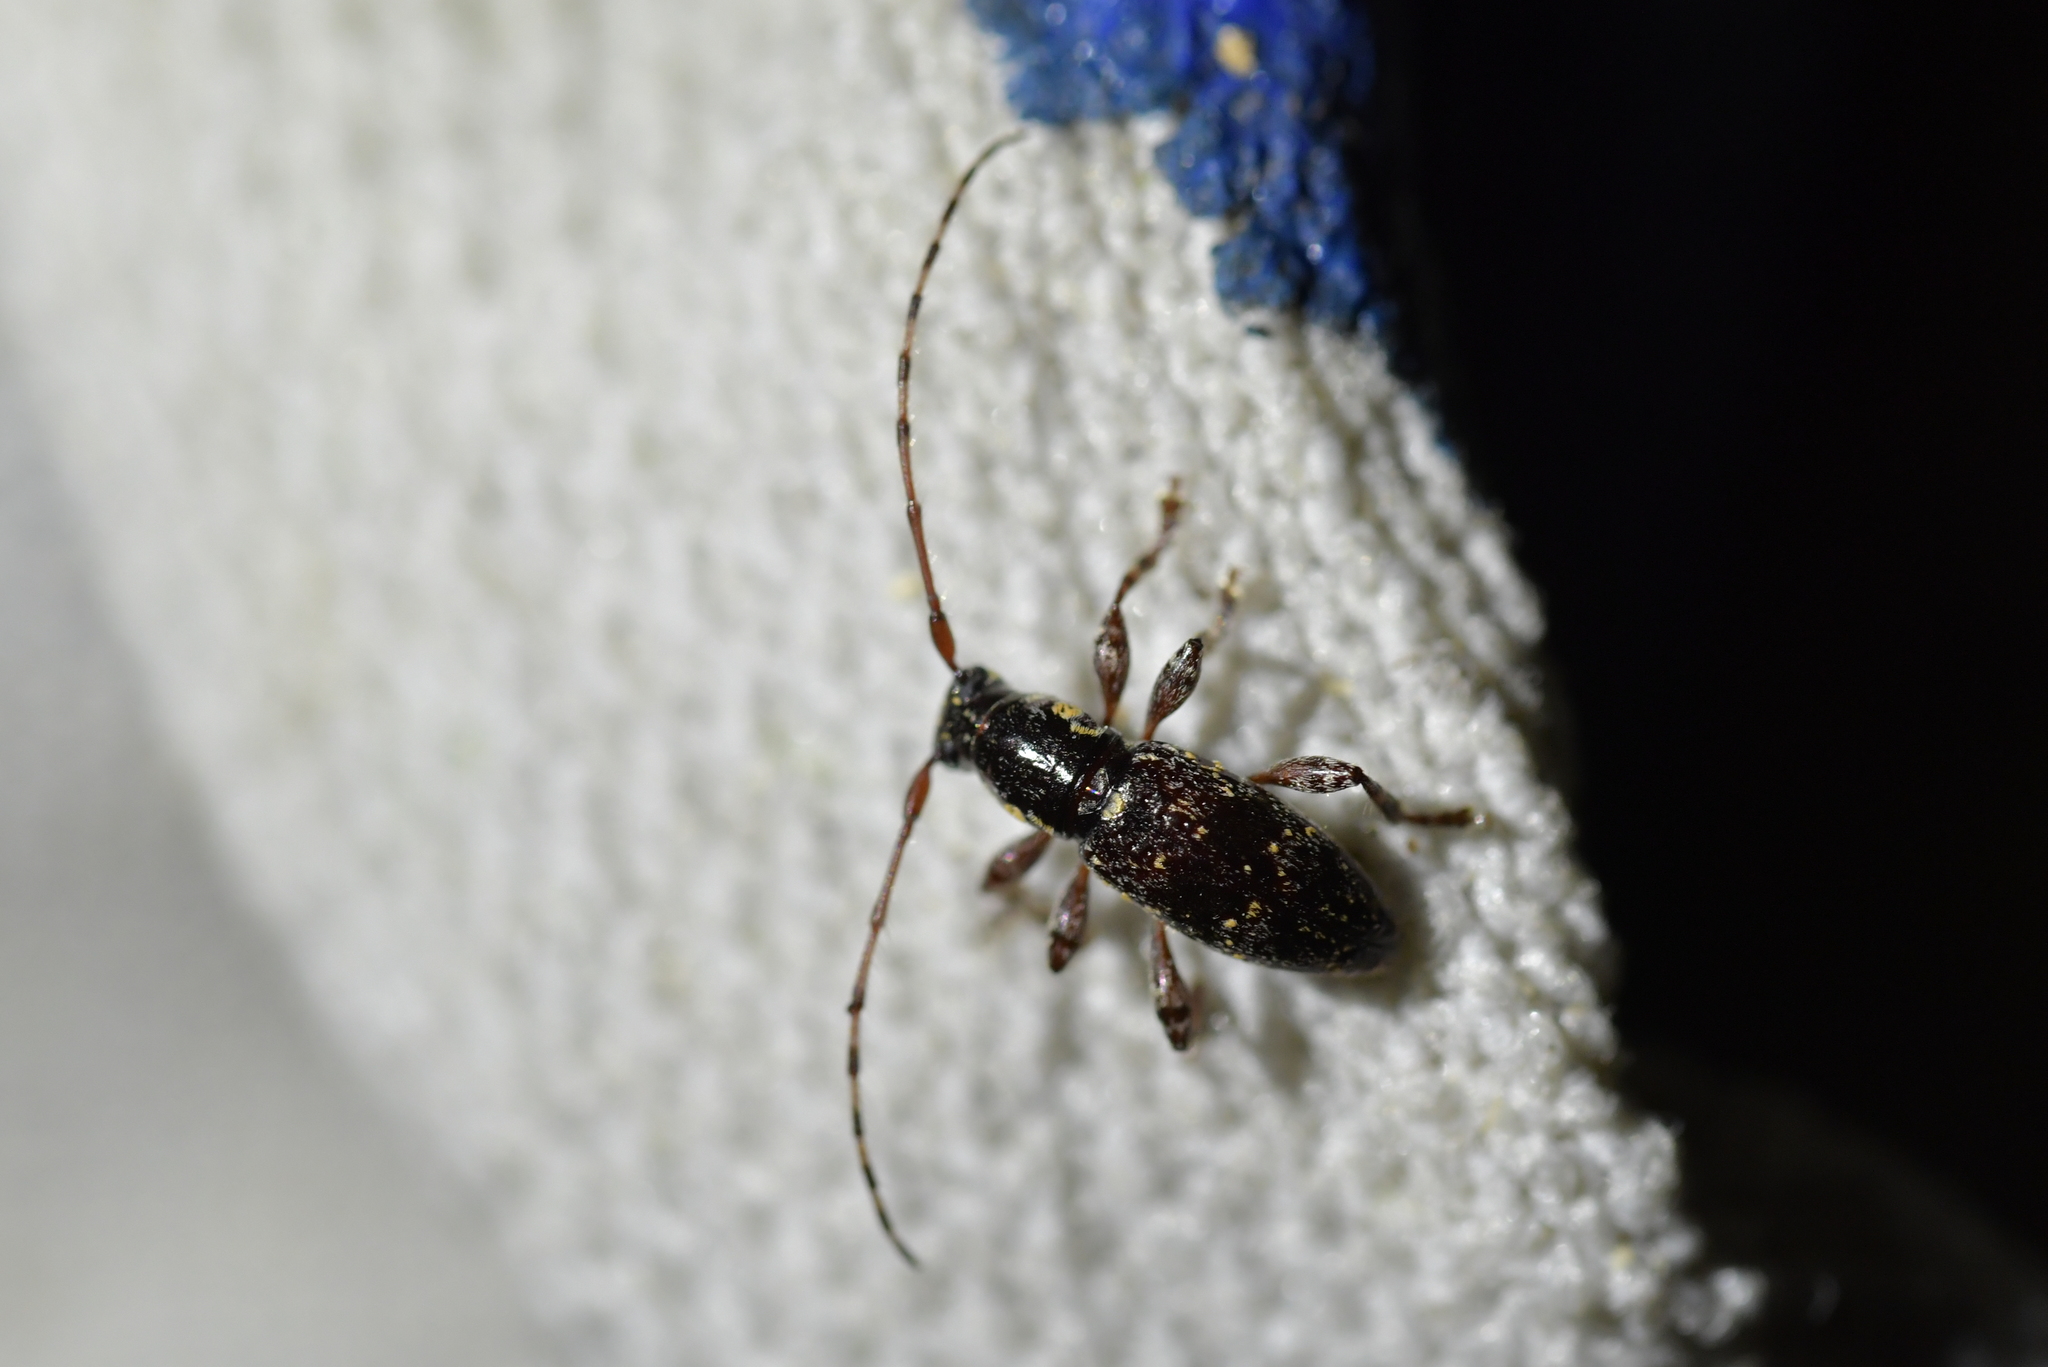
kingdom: Animalia
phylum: Arthropoda
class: Insecta
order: Coleoptera
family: Cerambycidae
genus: Xylotoles
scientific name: Xylotoles laetus
